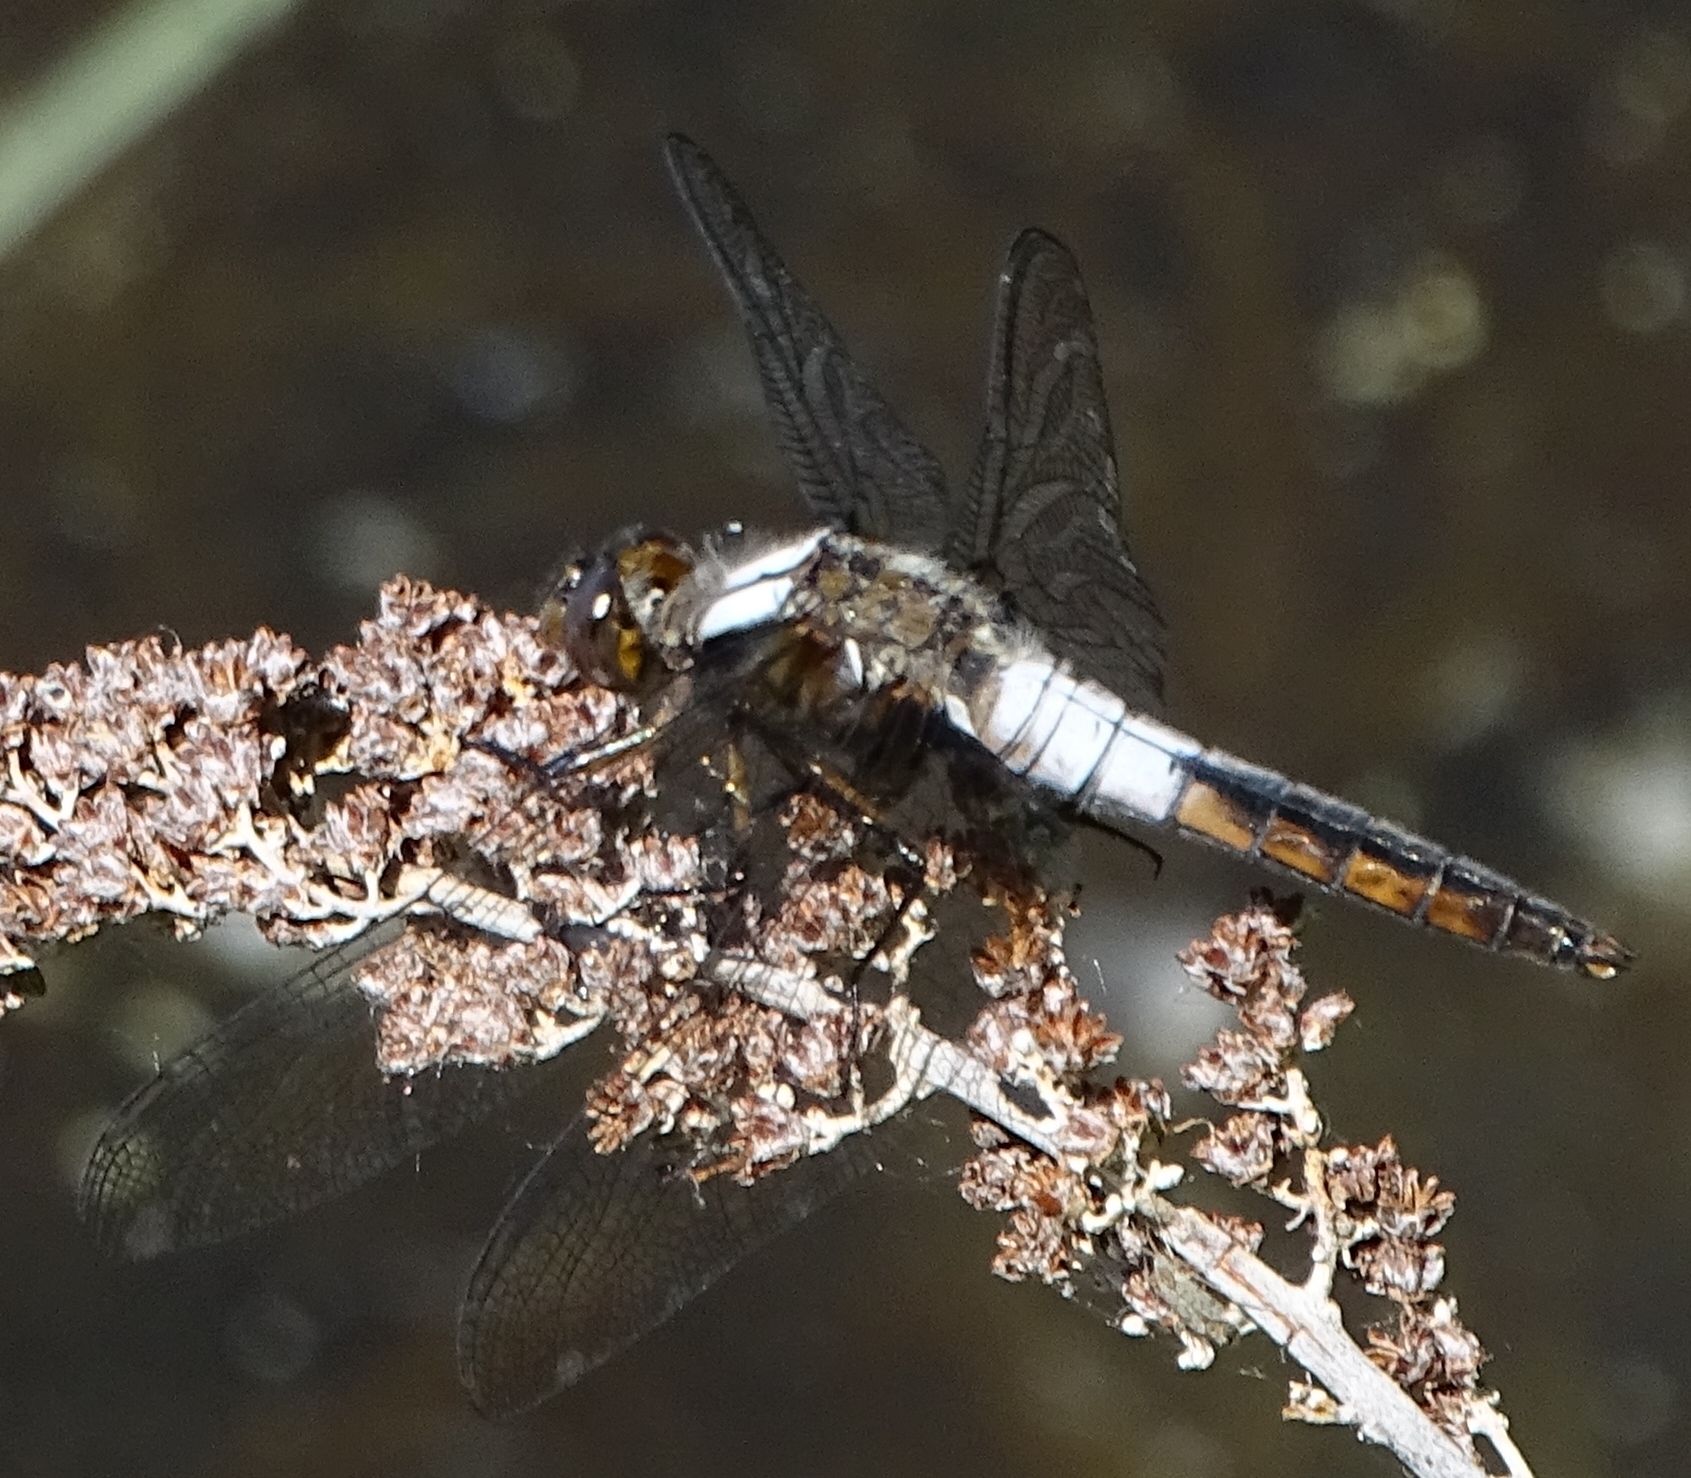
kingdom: Animalia
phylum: Arthropoda
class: Insecta
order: Odonata
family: Libellulidae
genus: Ladona
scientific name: Ladona julia
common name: Chalk-fronted corporal
